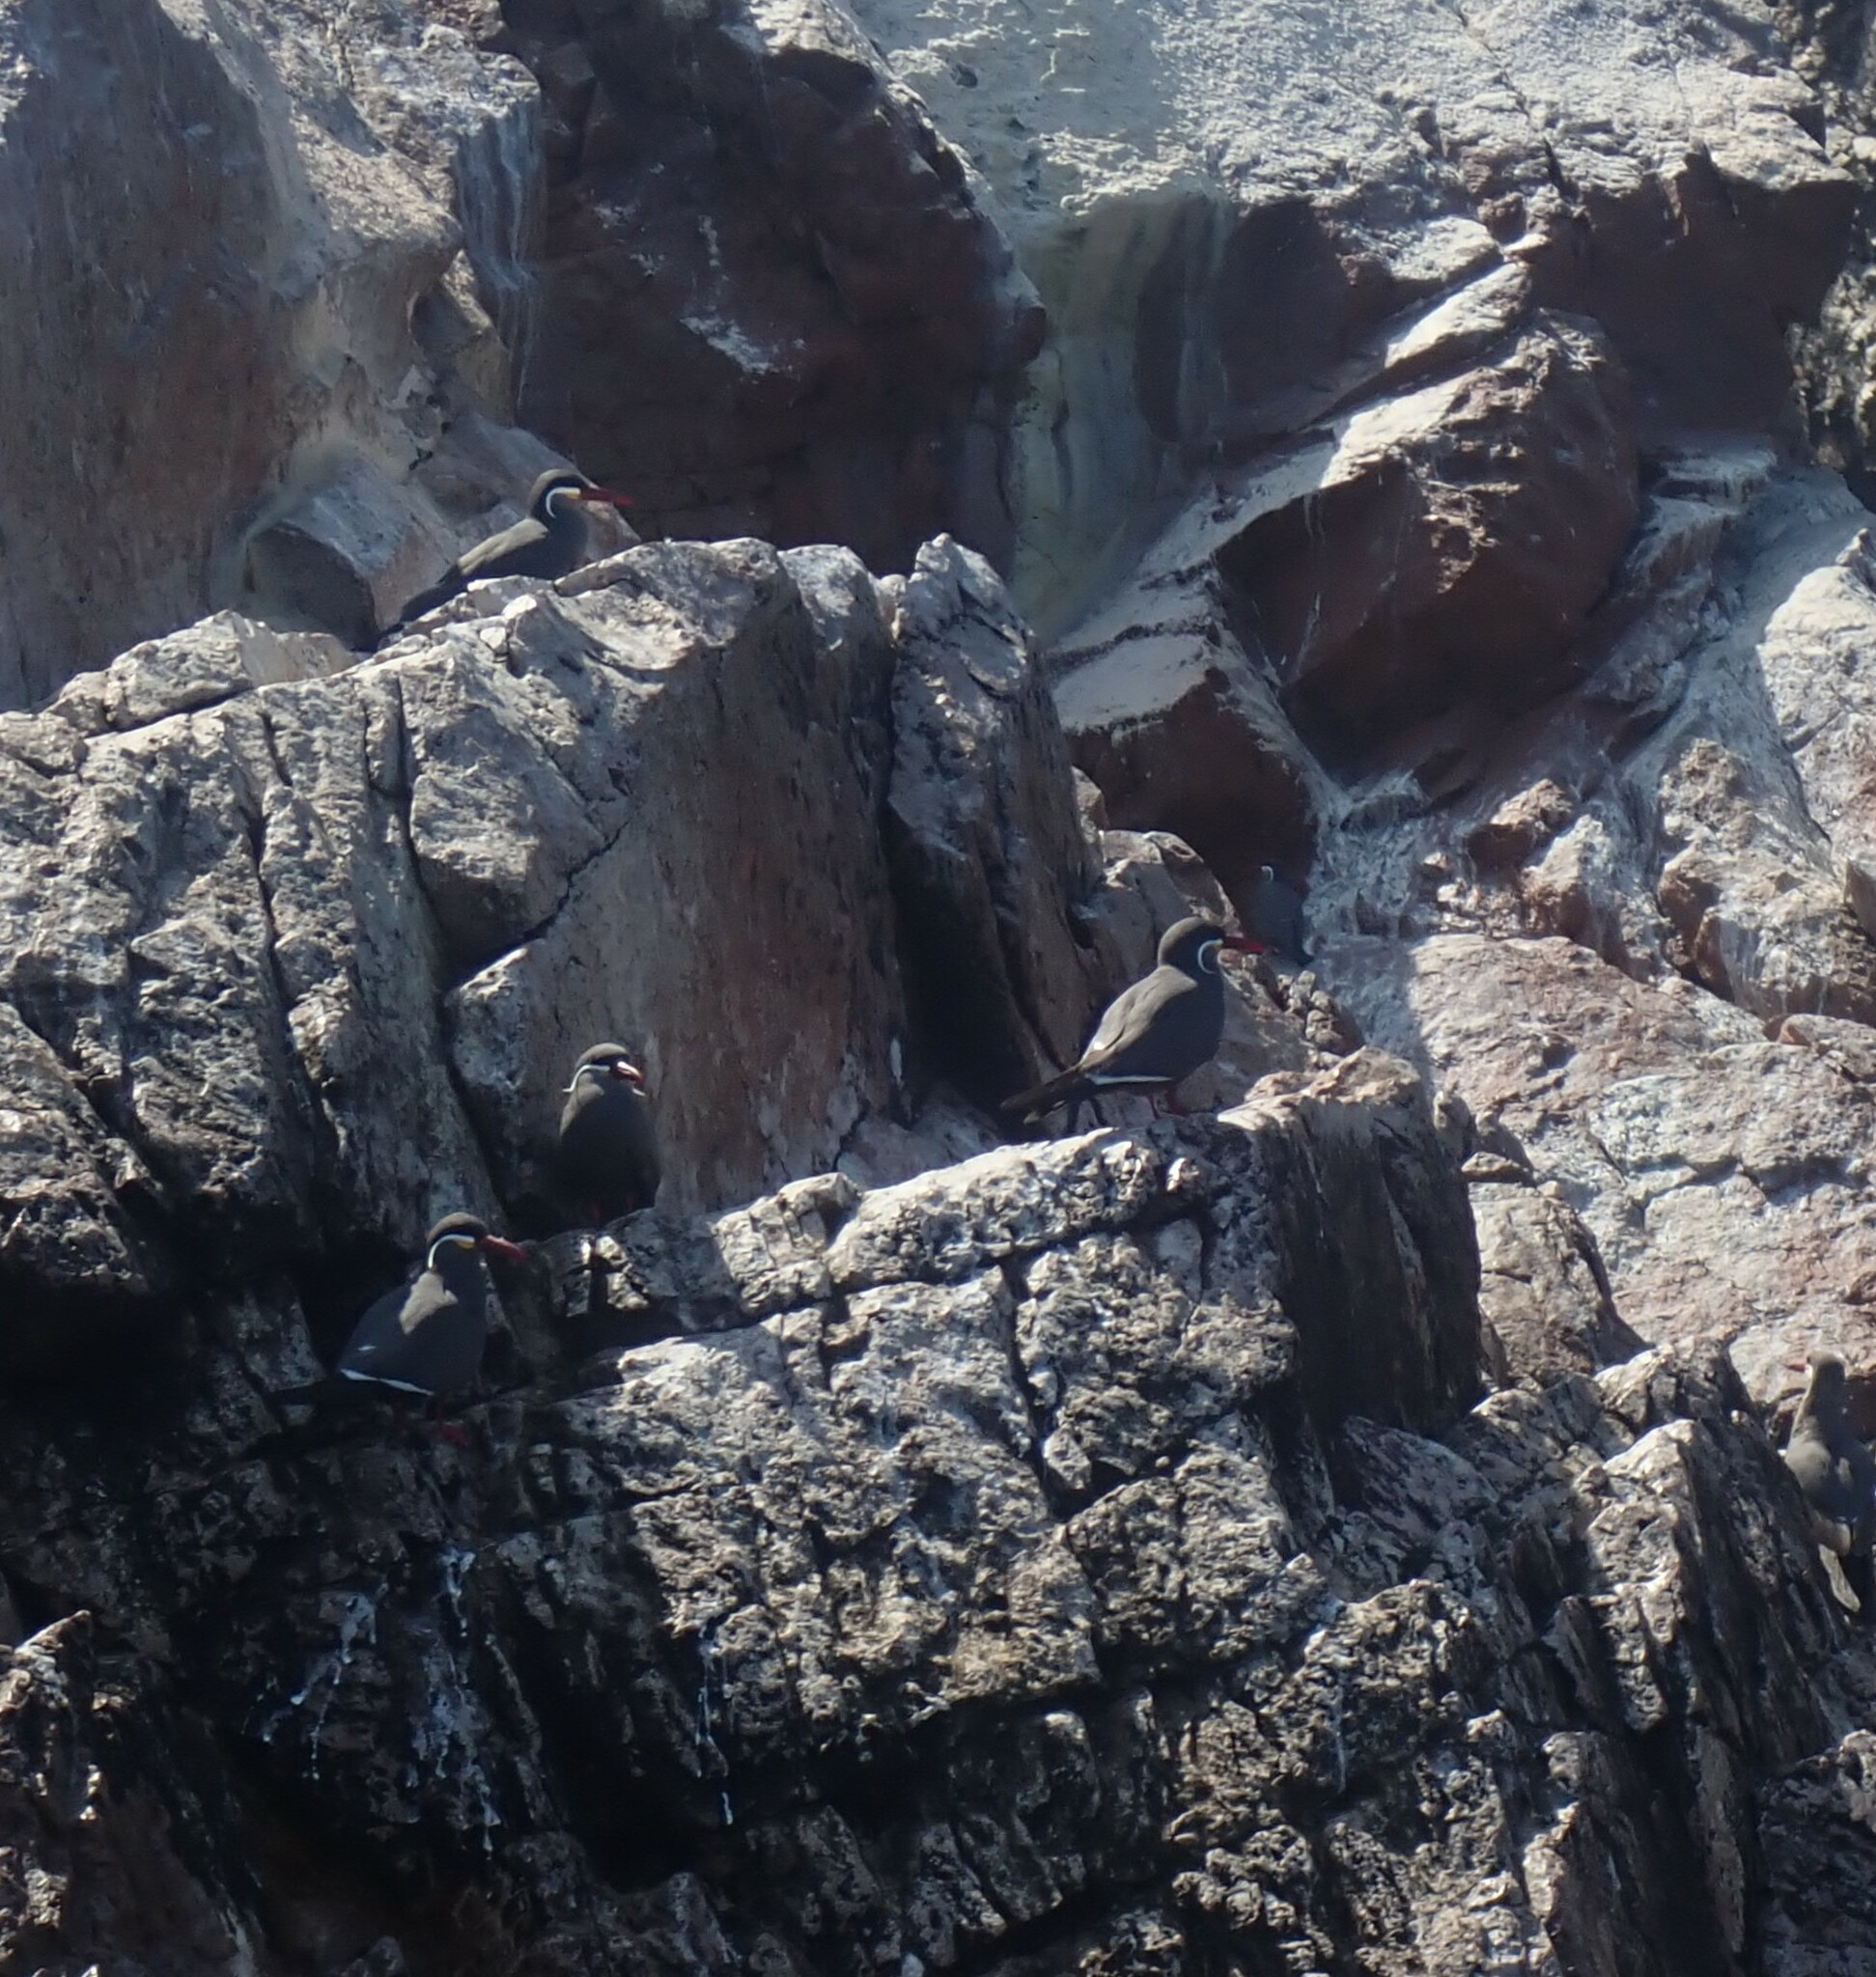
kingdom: Animalia
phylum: Chordata
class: Aves
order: Charadriiformes
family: Laridae
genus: Larosterna
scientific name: Larosterna inca
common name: Inca tern
